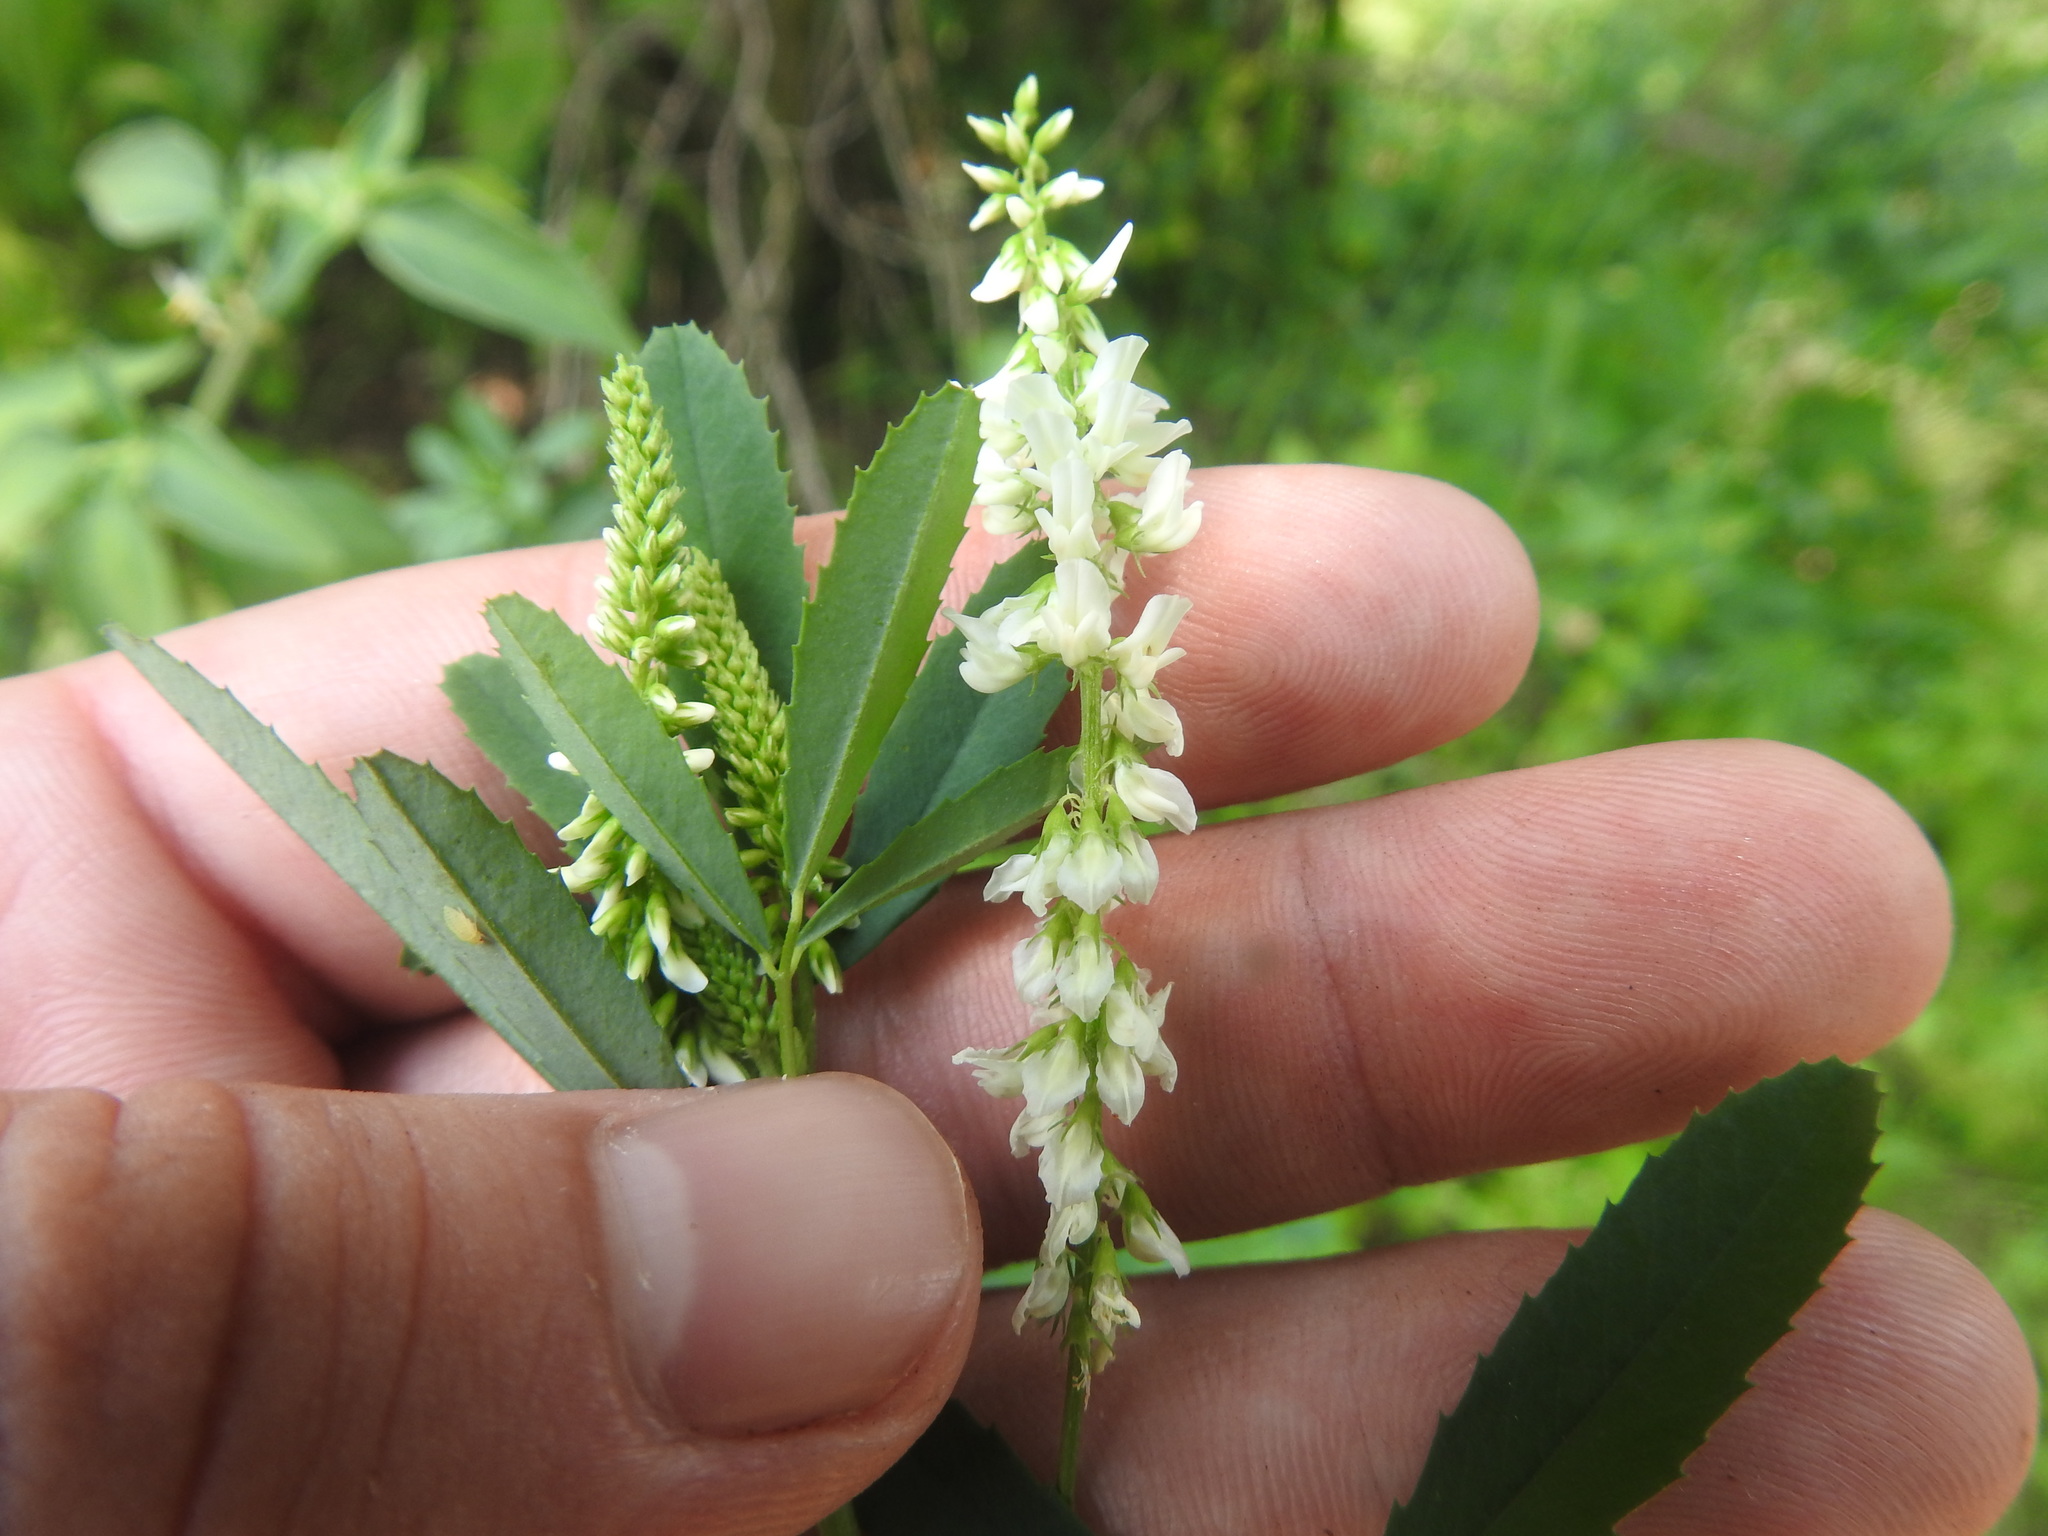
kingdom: Plantae
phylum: Tracheophyta
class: Magnoliopsida
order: Fabales
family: Fabaceae
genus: Melilotus
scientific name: Melilotus albus
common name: White melilot
